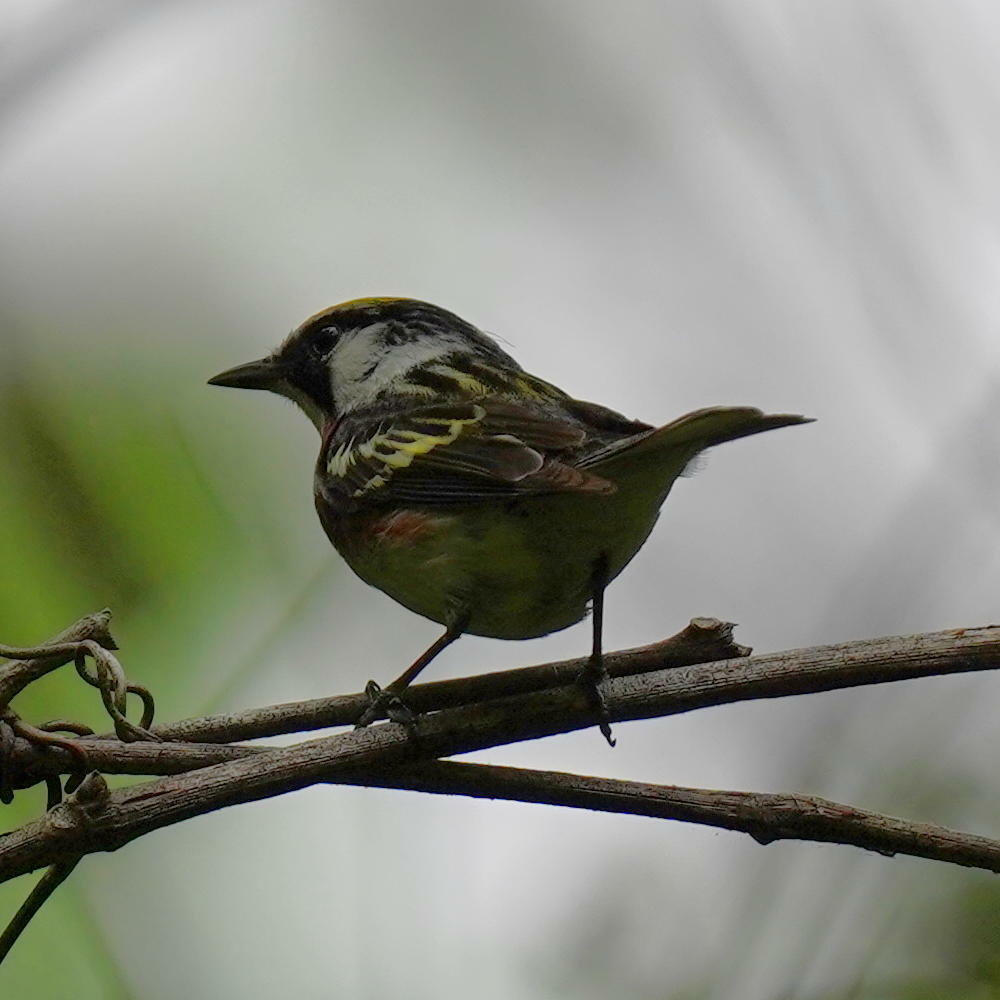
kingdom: Animalia
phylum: Chordata
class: Aves
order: Passeriformes
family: Parulidae
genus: Setophaga
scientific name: Setophaga pensylvanica
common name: Chestnut-sided warbler
